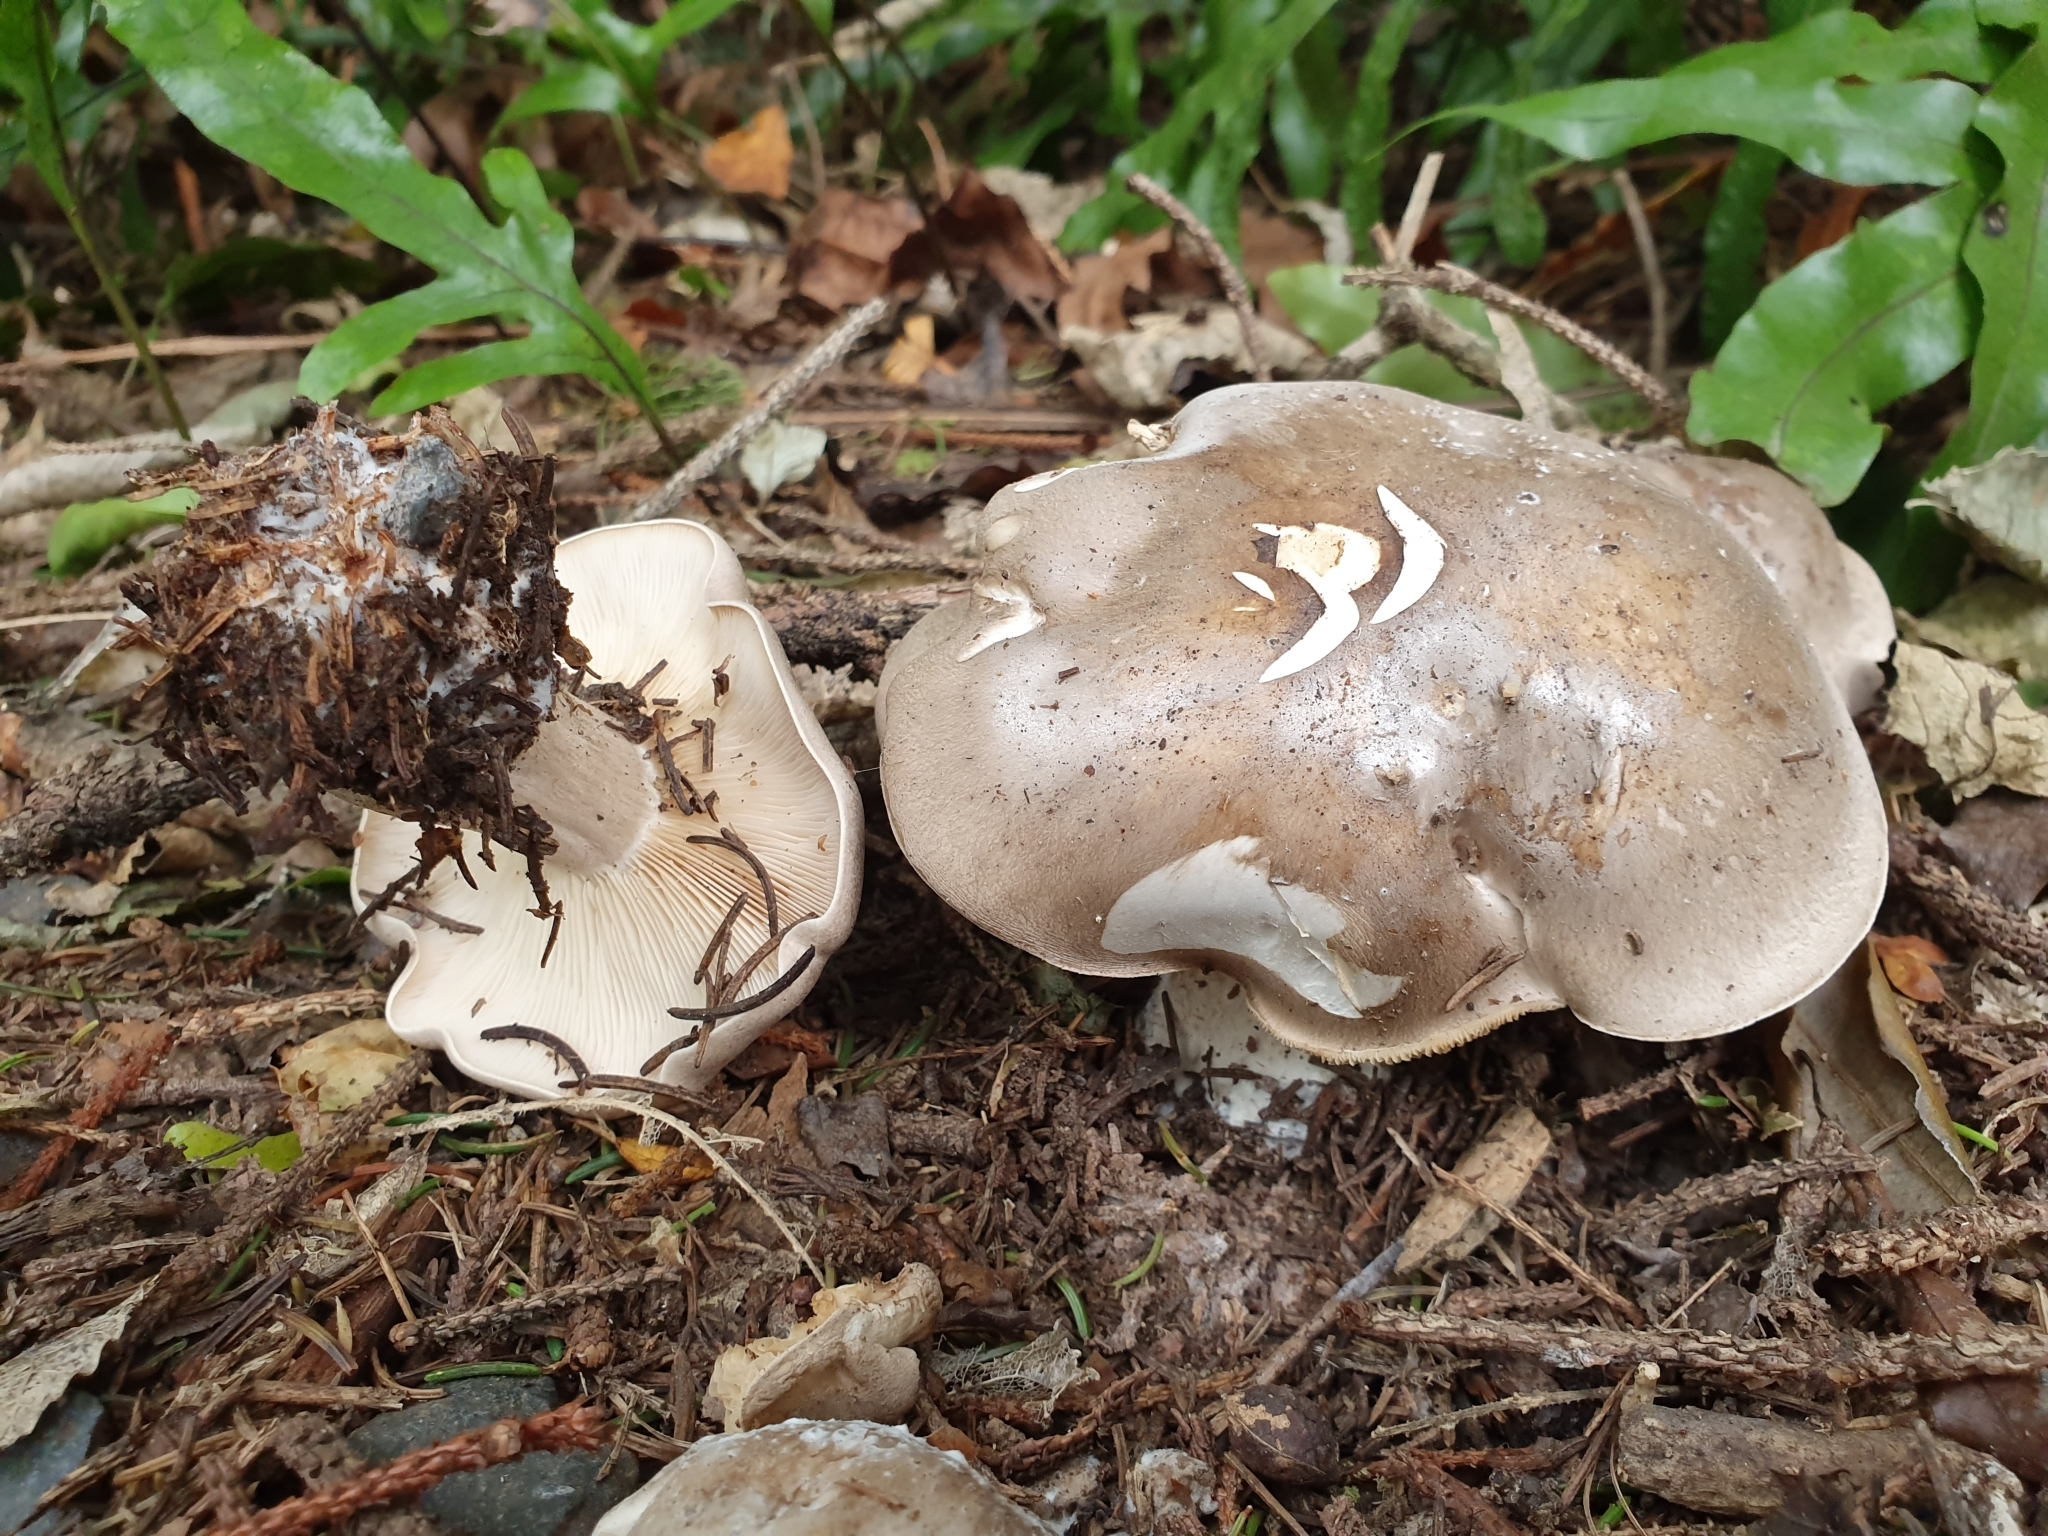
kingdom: Fungi
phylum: Basidiomycota
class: Agaricomycetes
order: Agaricales
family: Tricholomataceae
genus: Clitocybe
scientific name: Clitocybe nebularis
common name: Clouded agaric
